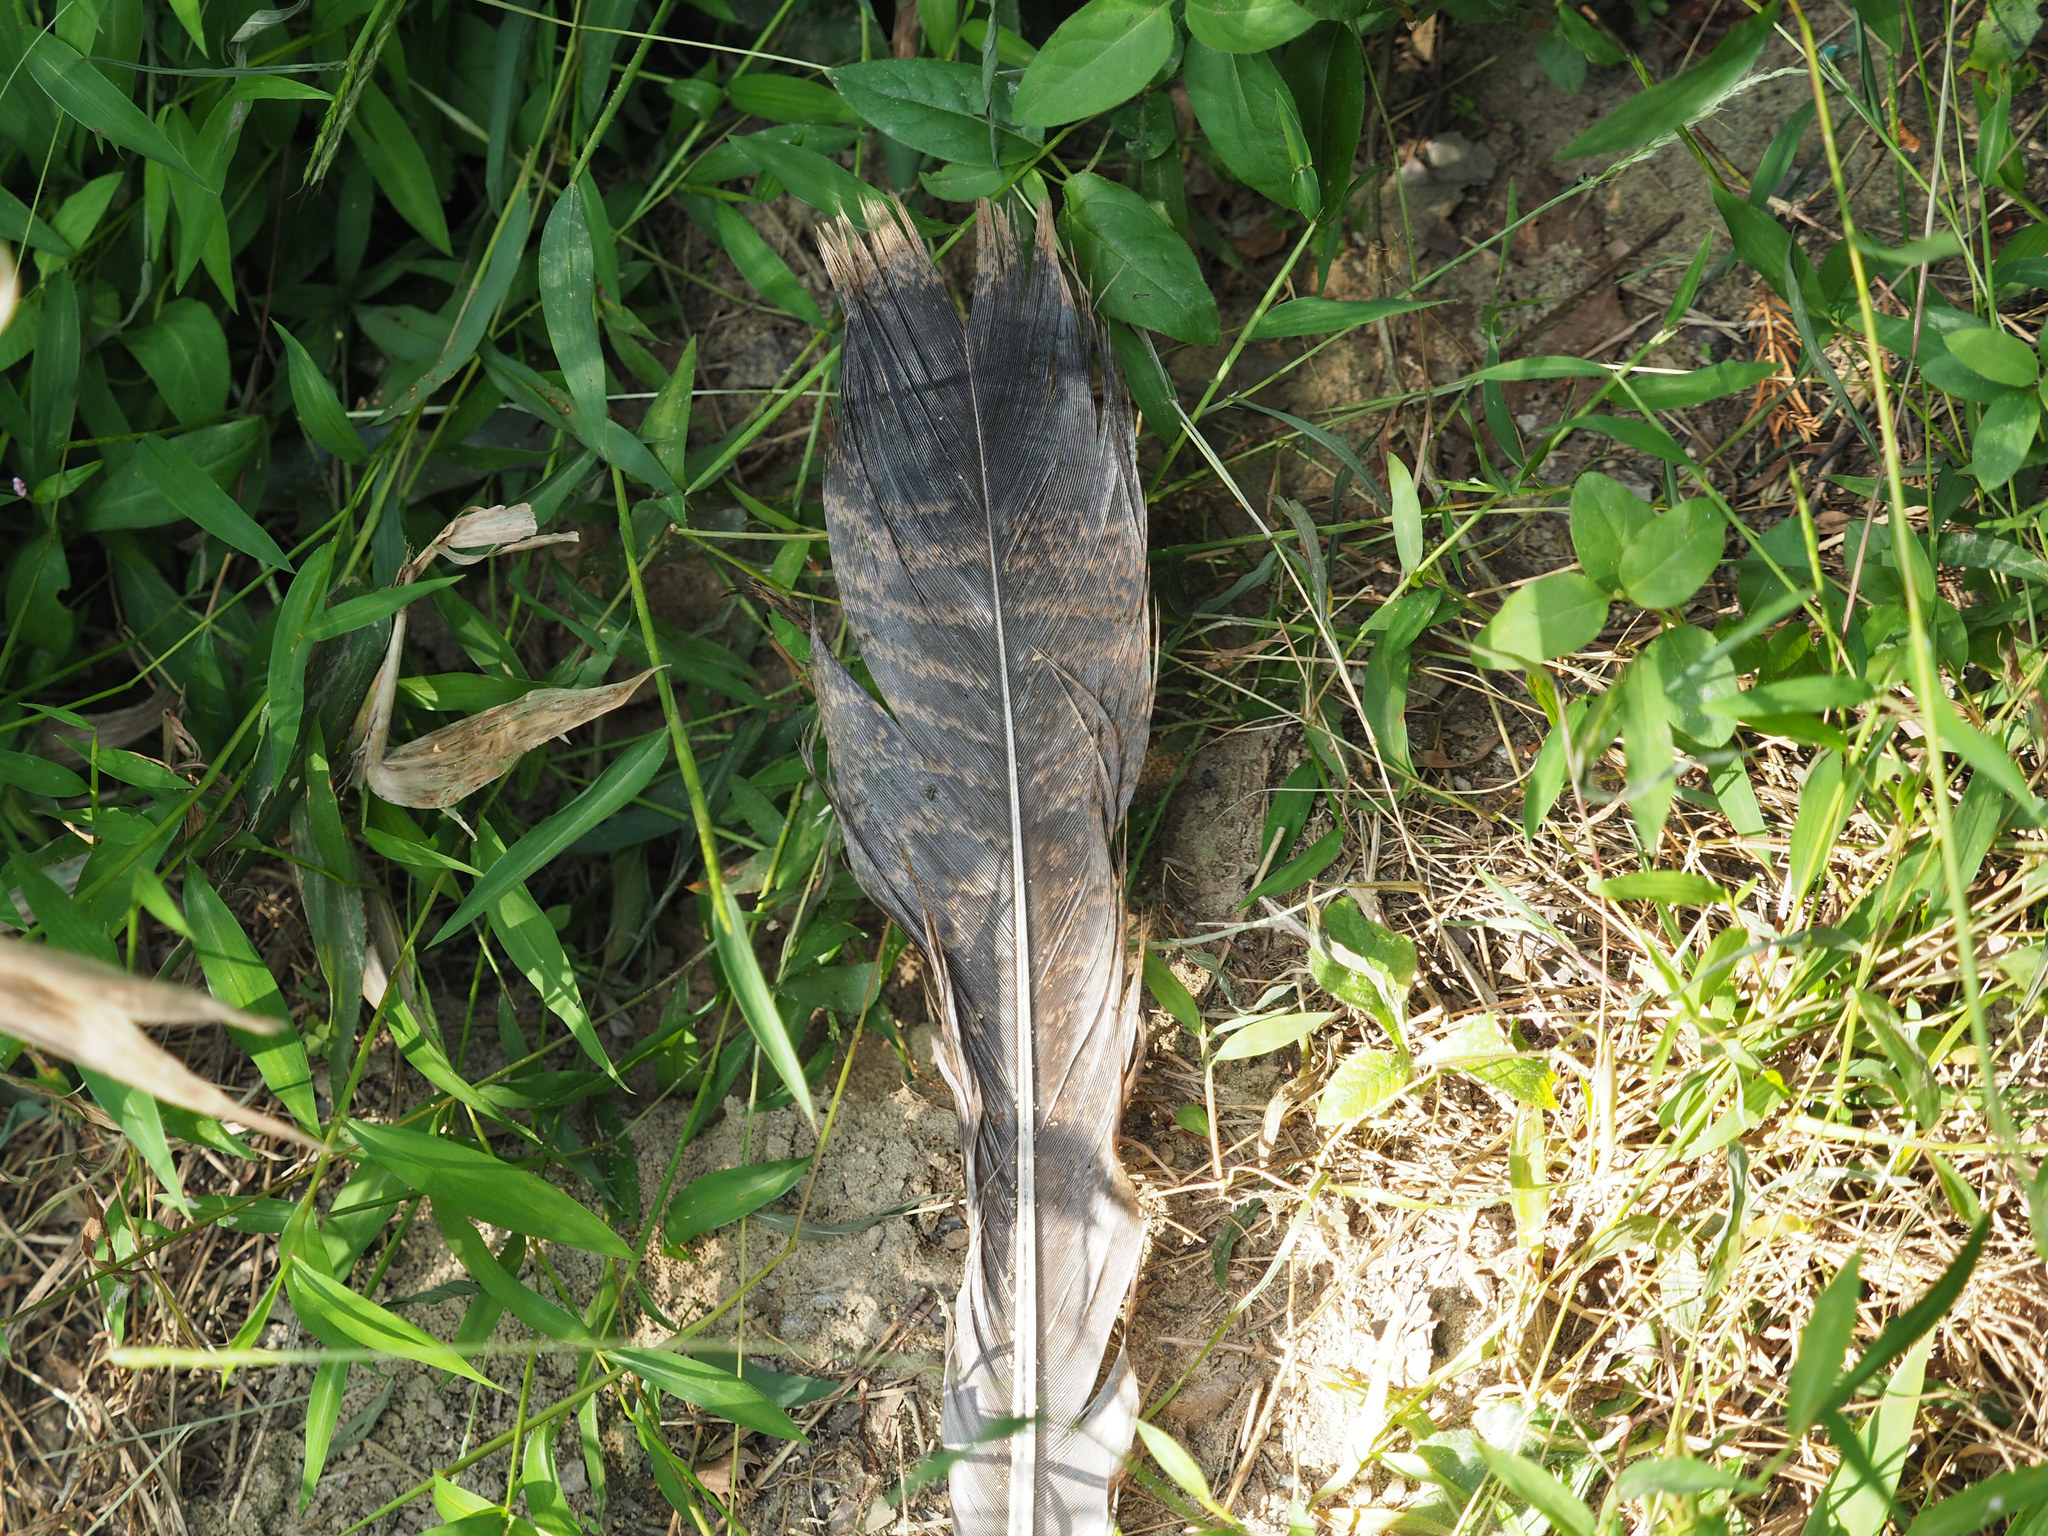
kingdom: Animalia
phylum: Chordata
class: Aves
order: Galliformes
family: Phasianidae
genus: Meleagris
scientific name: Meleagris gallopavo
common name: Wild turkey
